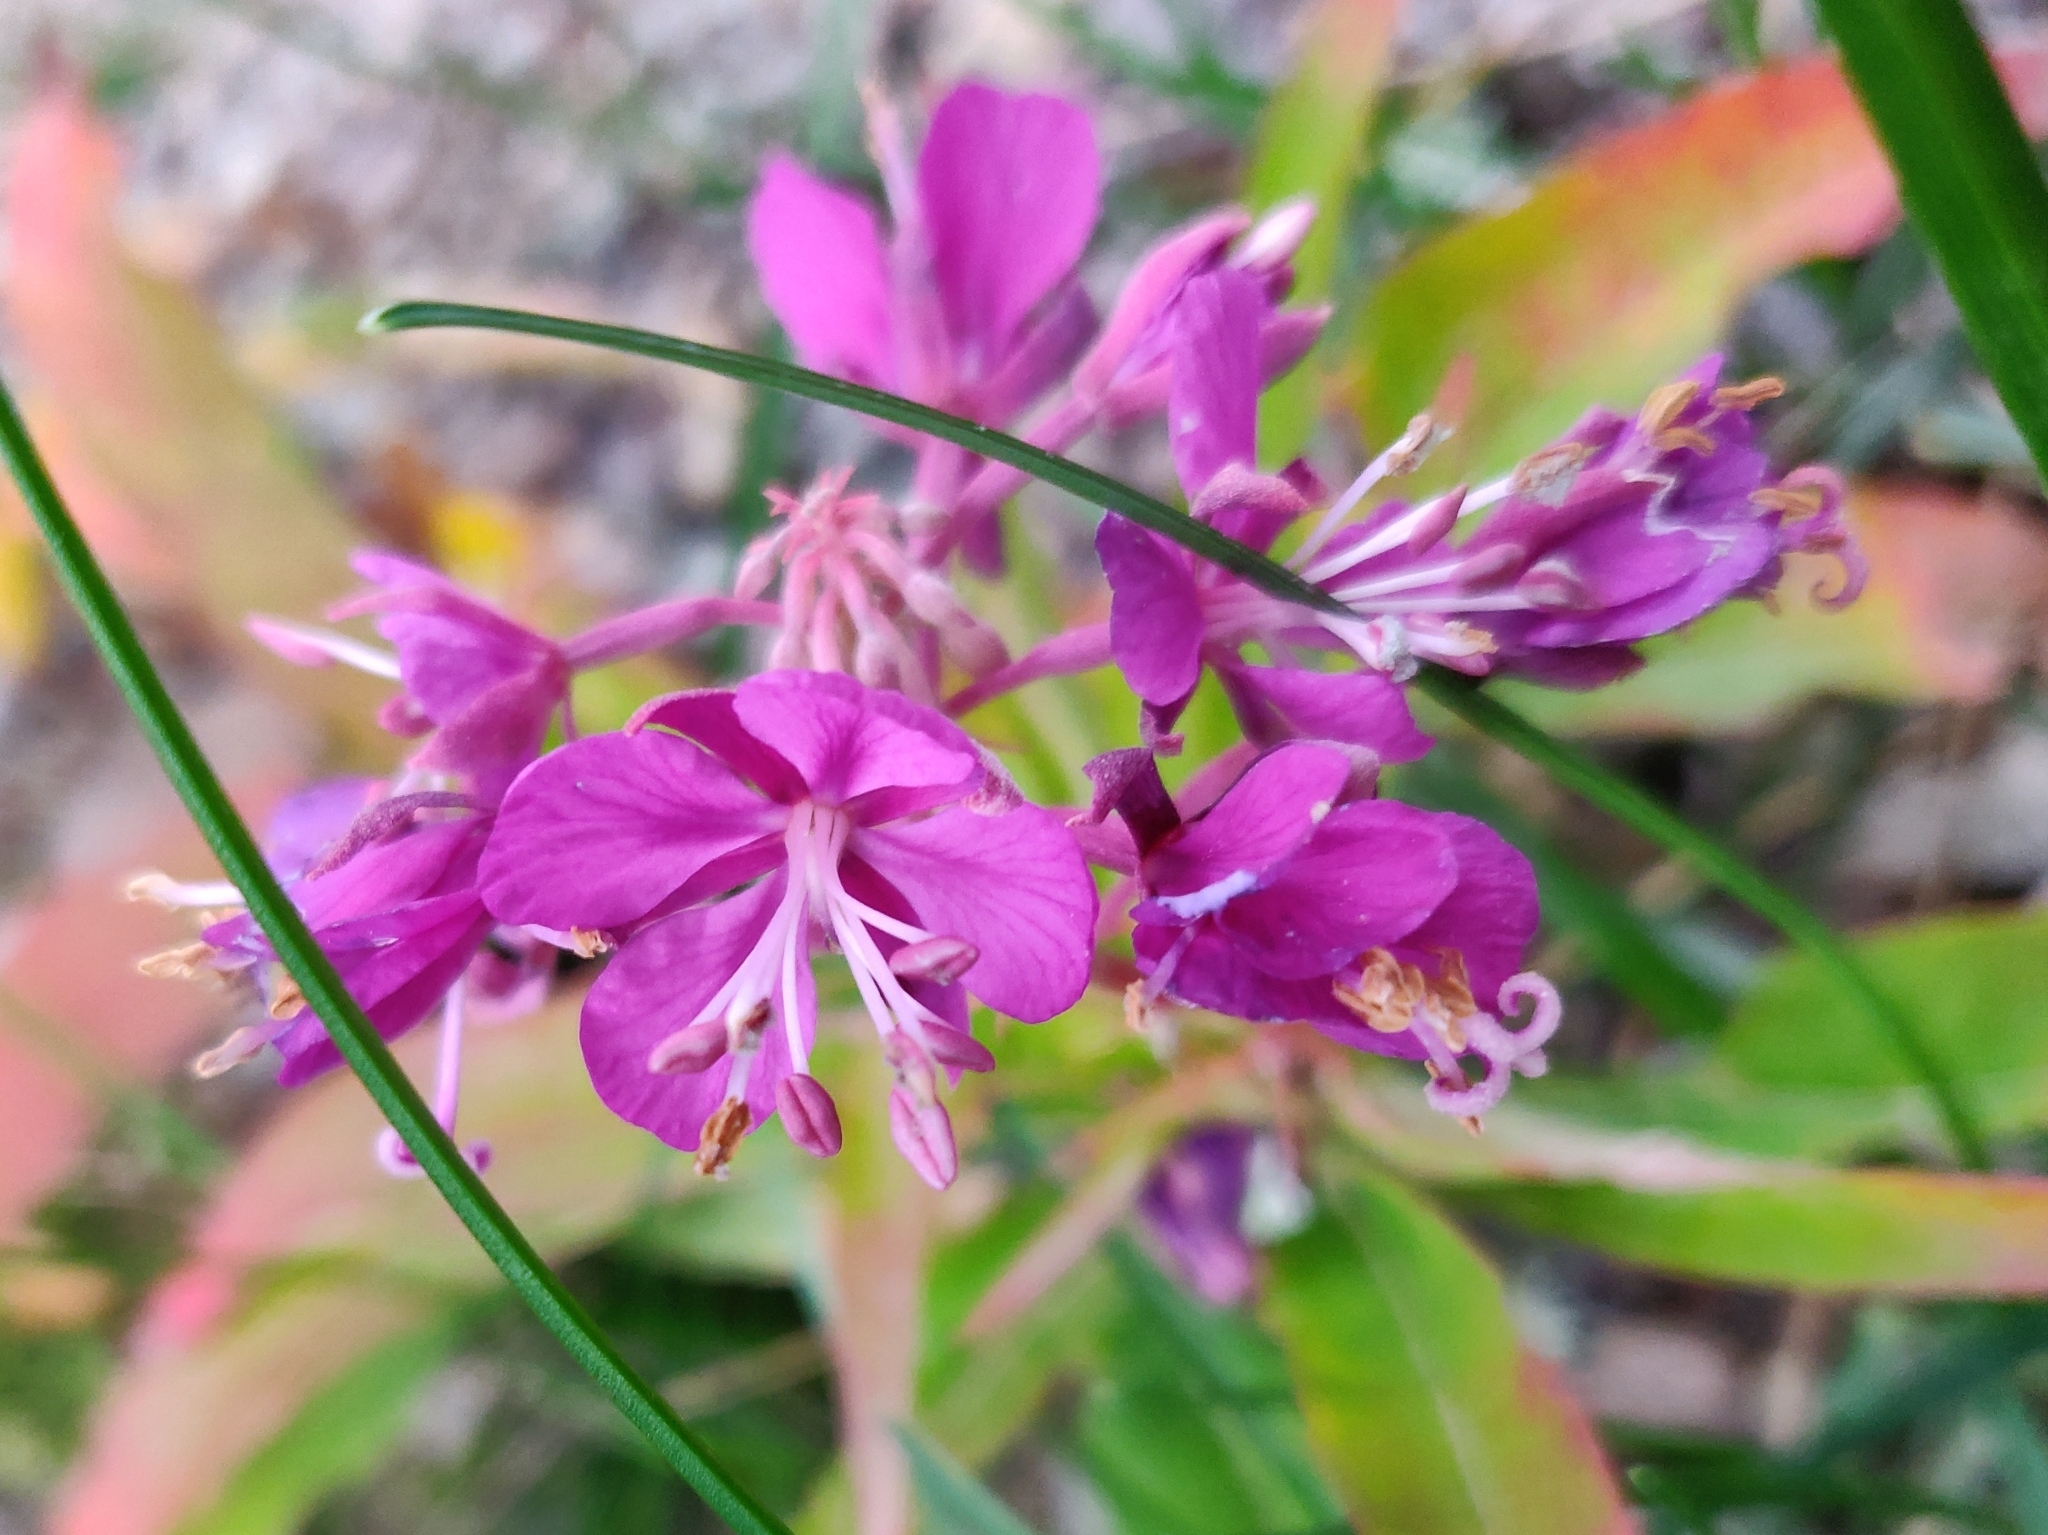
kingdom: Plantae
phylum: Tracheophyta
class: Magnoliopsida
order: Myrtales
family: Onagraceae
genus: Chamaenerion
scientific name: Chamaenerion angustifolium
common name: Fireweed
